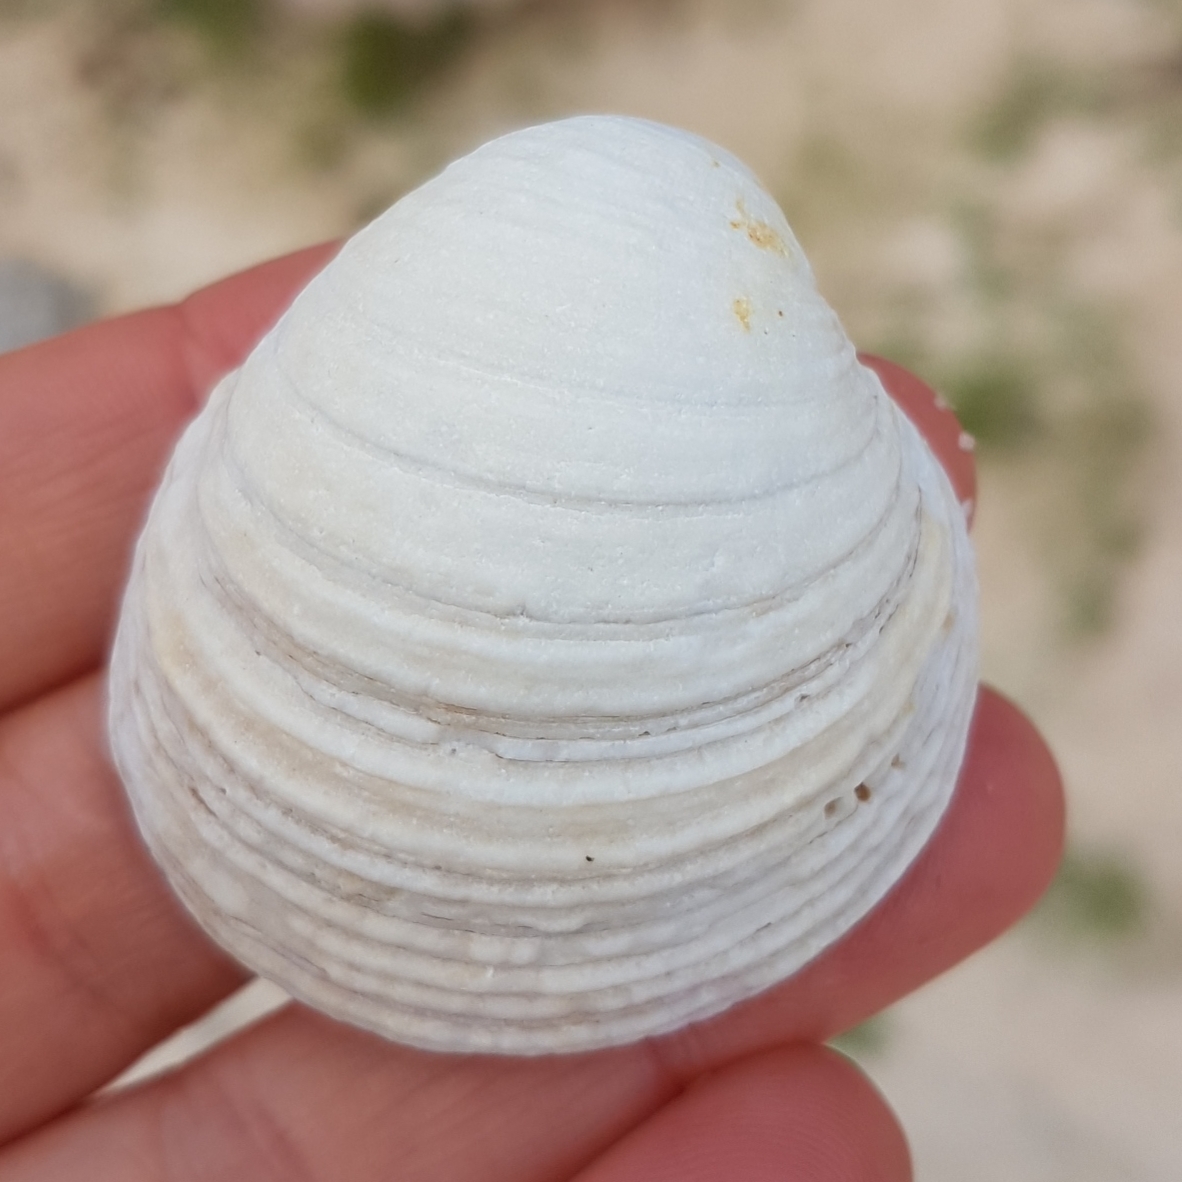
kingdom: Animalia
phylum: Mollusca
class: Bivalvia
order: Venerida
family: Veneridae
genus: Venus
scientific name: Venus verrucosa
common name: Warty venus
